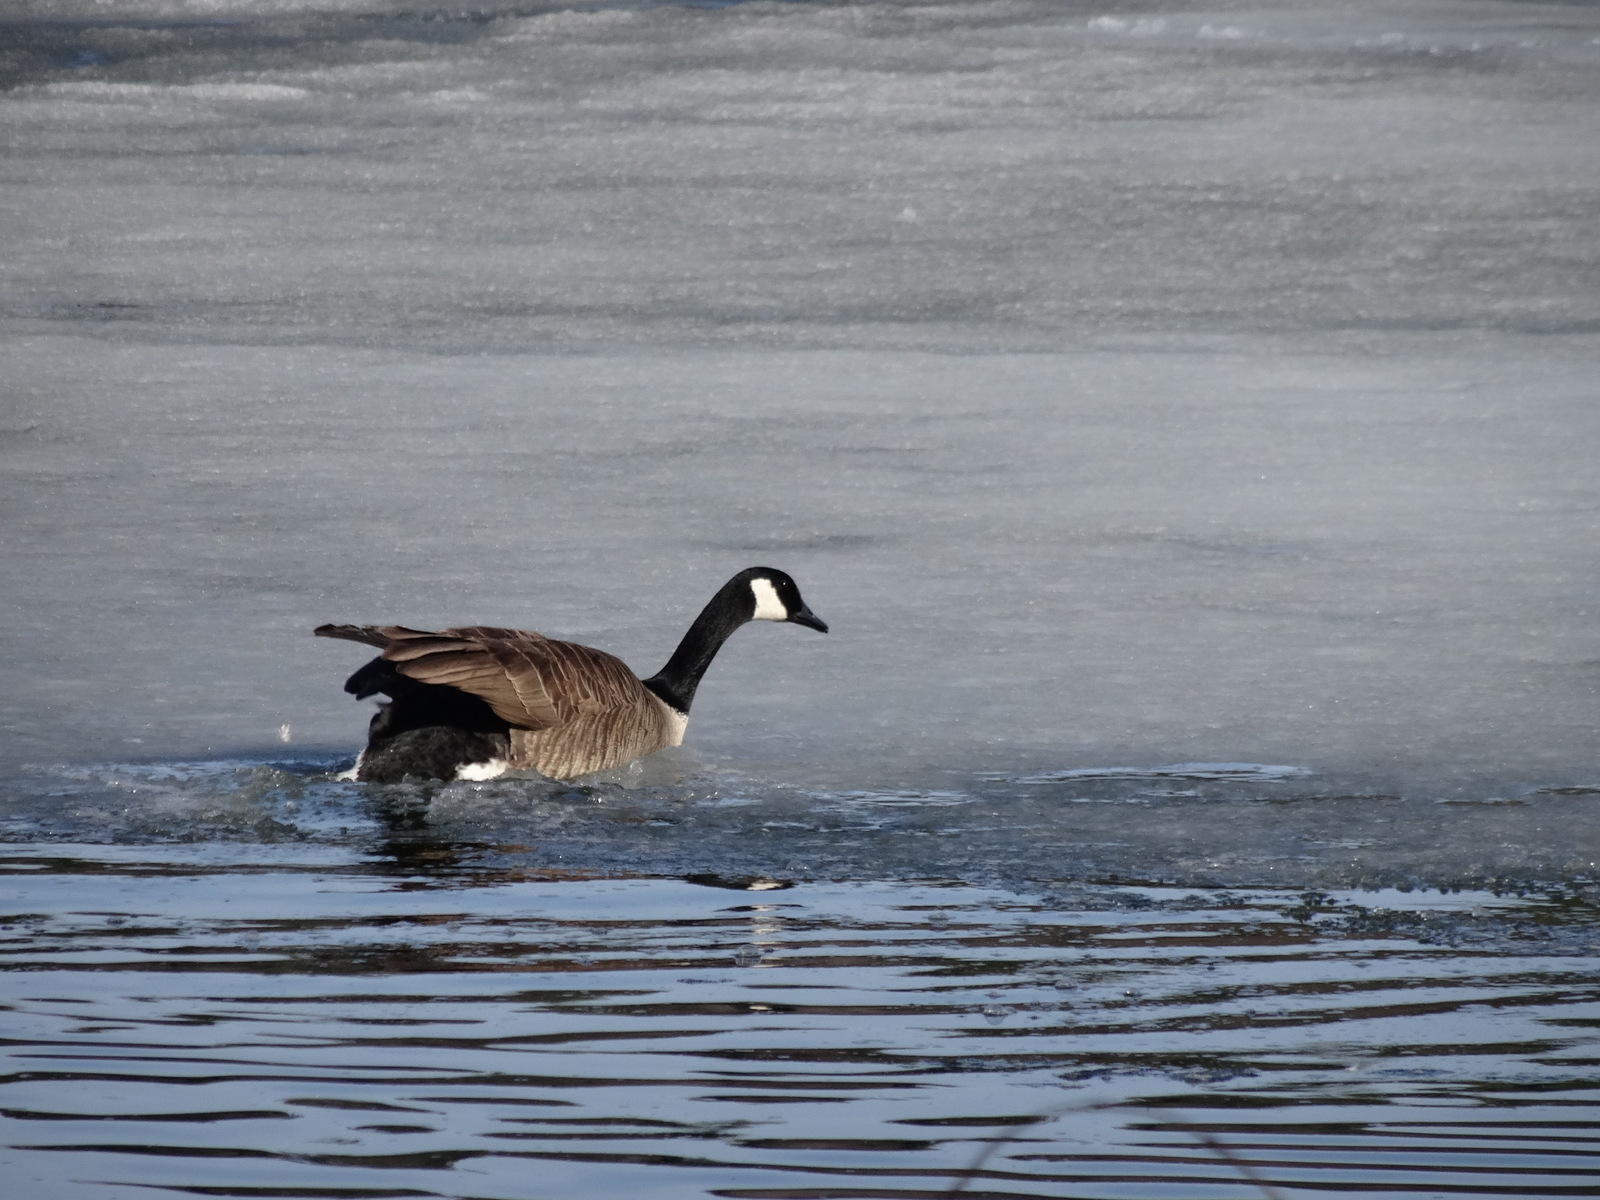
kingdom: Animalia
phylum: Chordata
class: Aves
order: Anseriformes
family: Anatidae
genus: Branta
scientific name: Branta canadensis
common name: Canada goose
